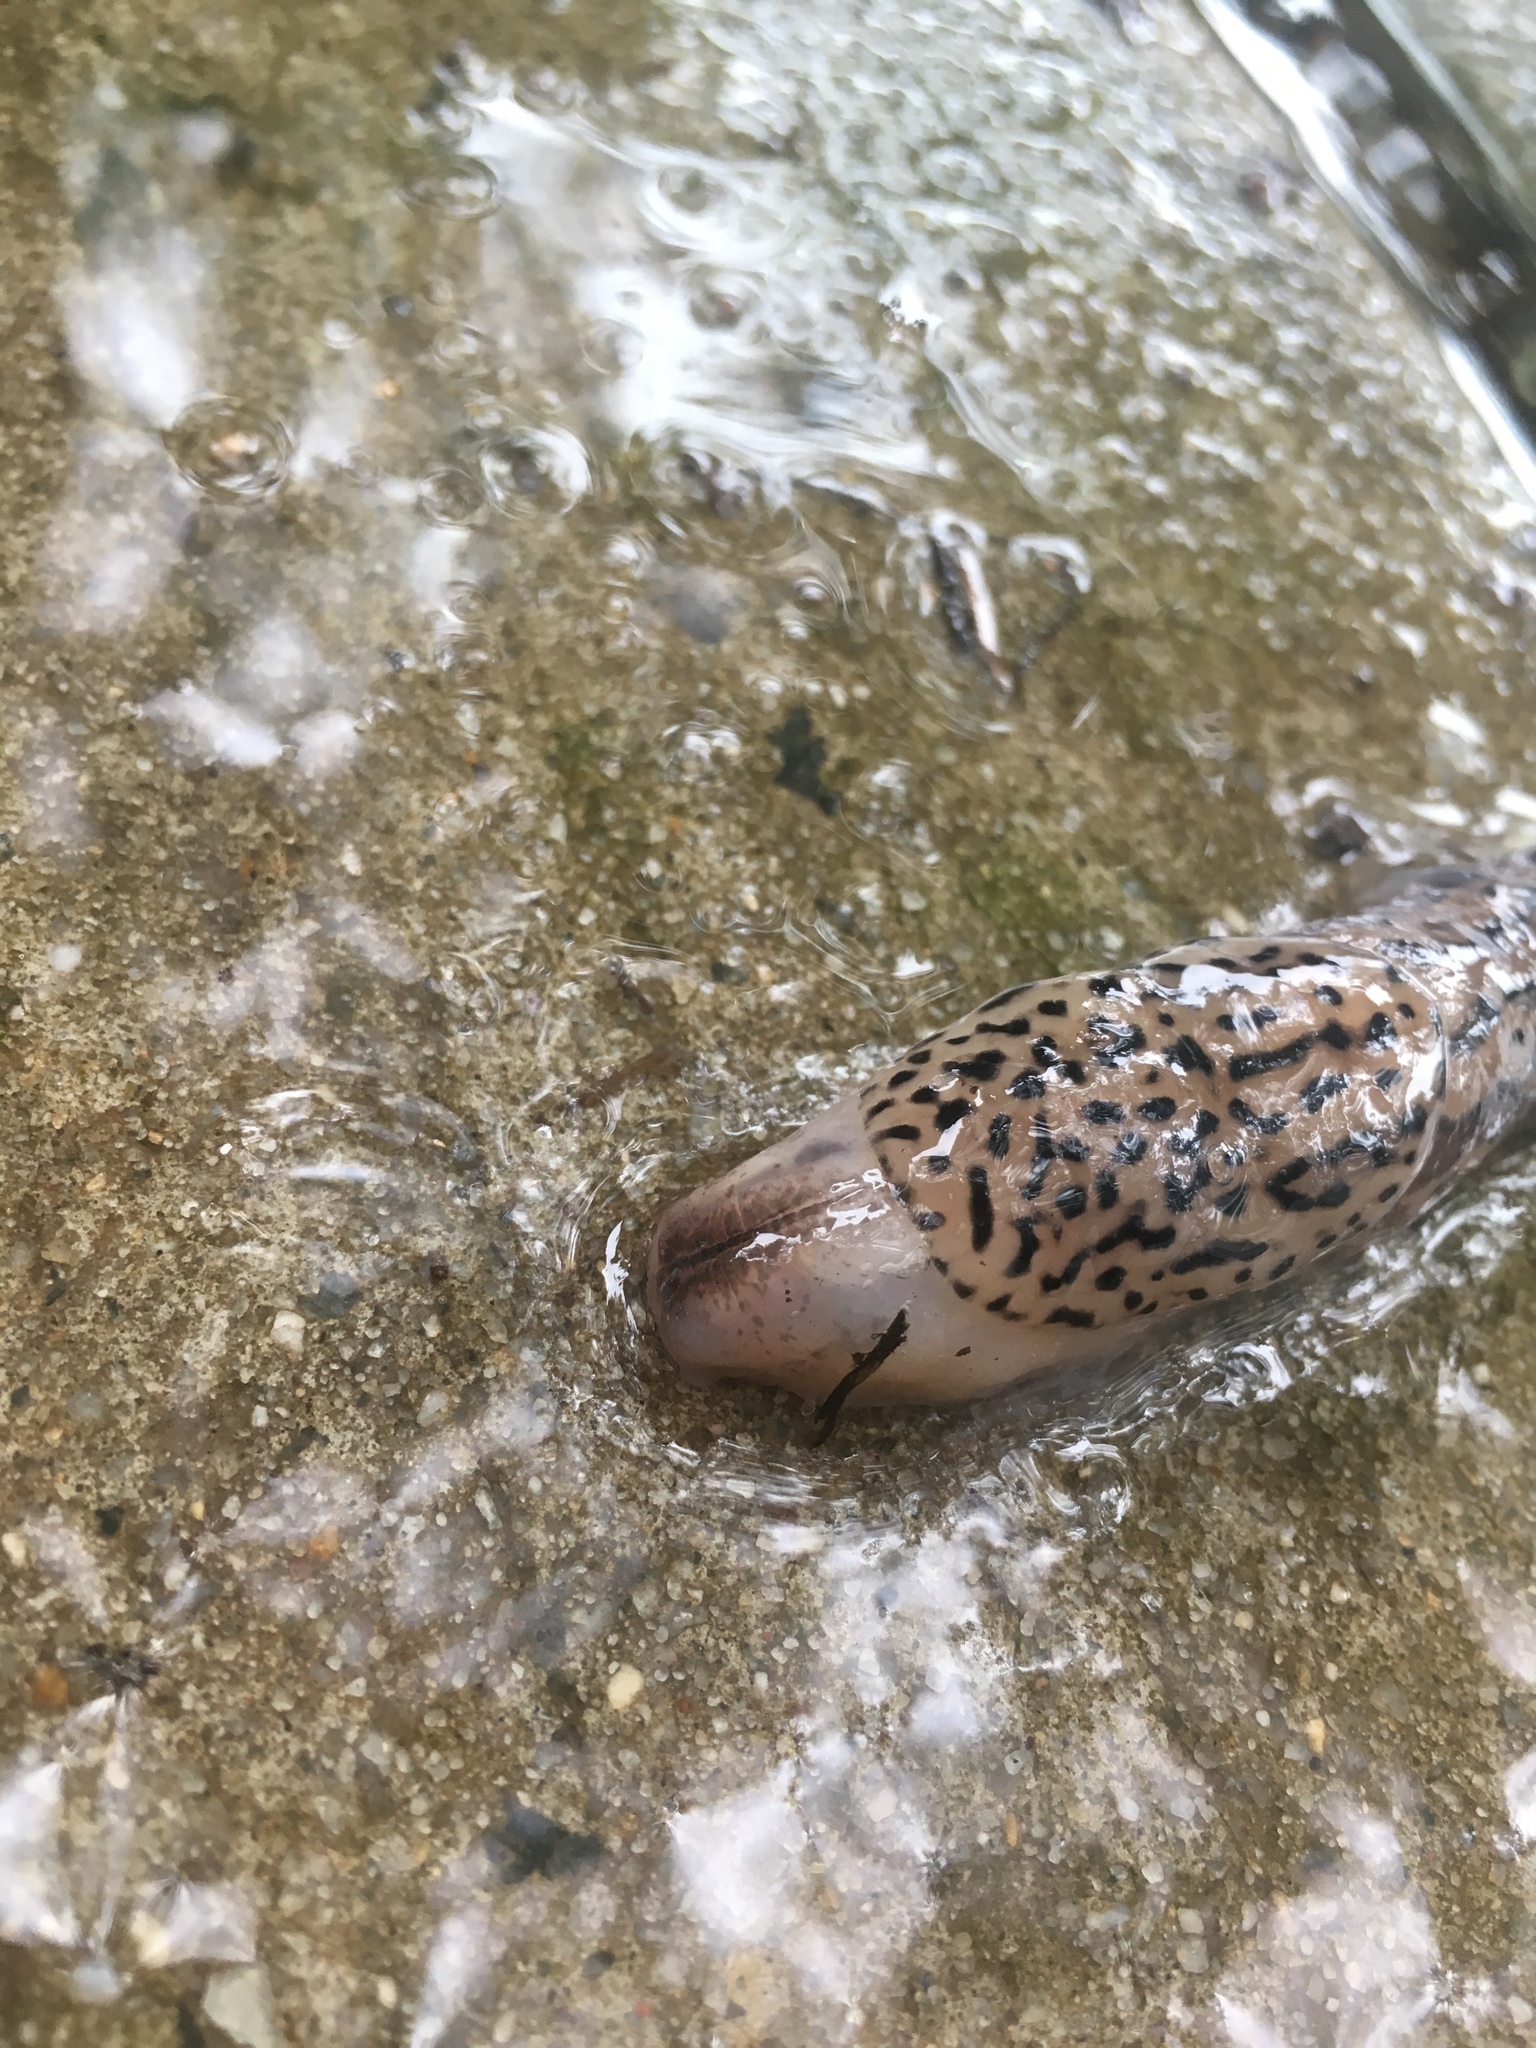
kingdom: Animalia
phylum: Mollusca
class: Gastropoda
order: Stylommatophora
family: Limacidae
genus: Limax
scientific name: Limax maximus
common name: Great grey slug
